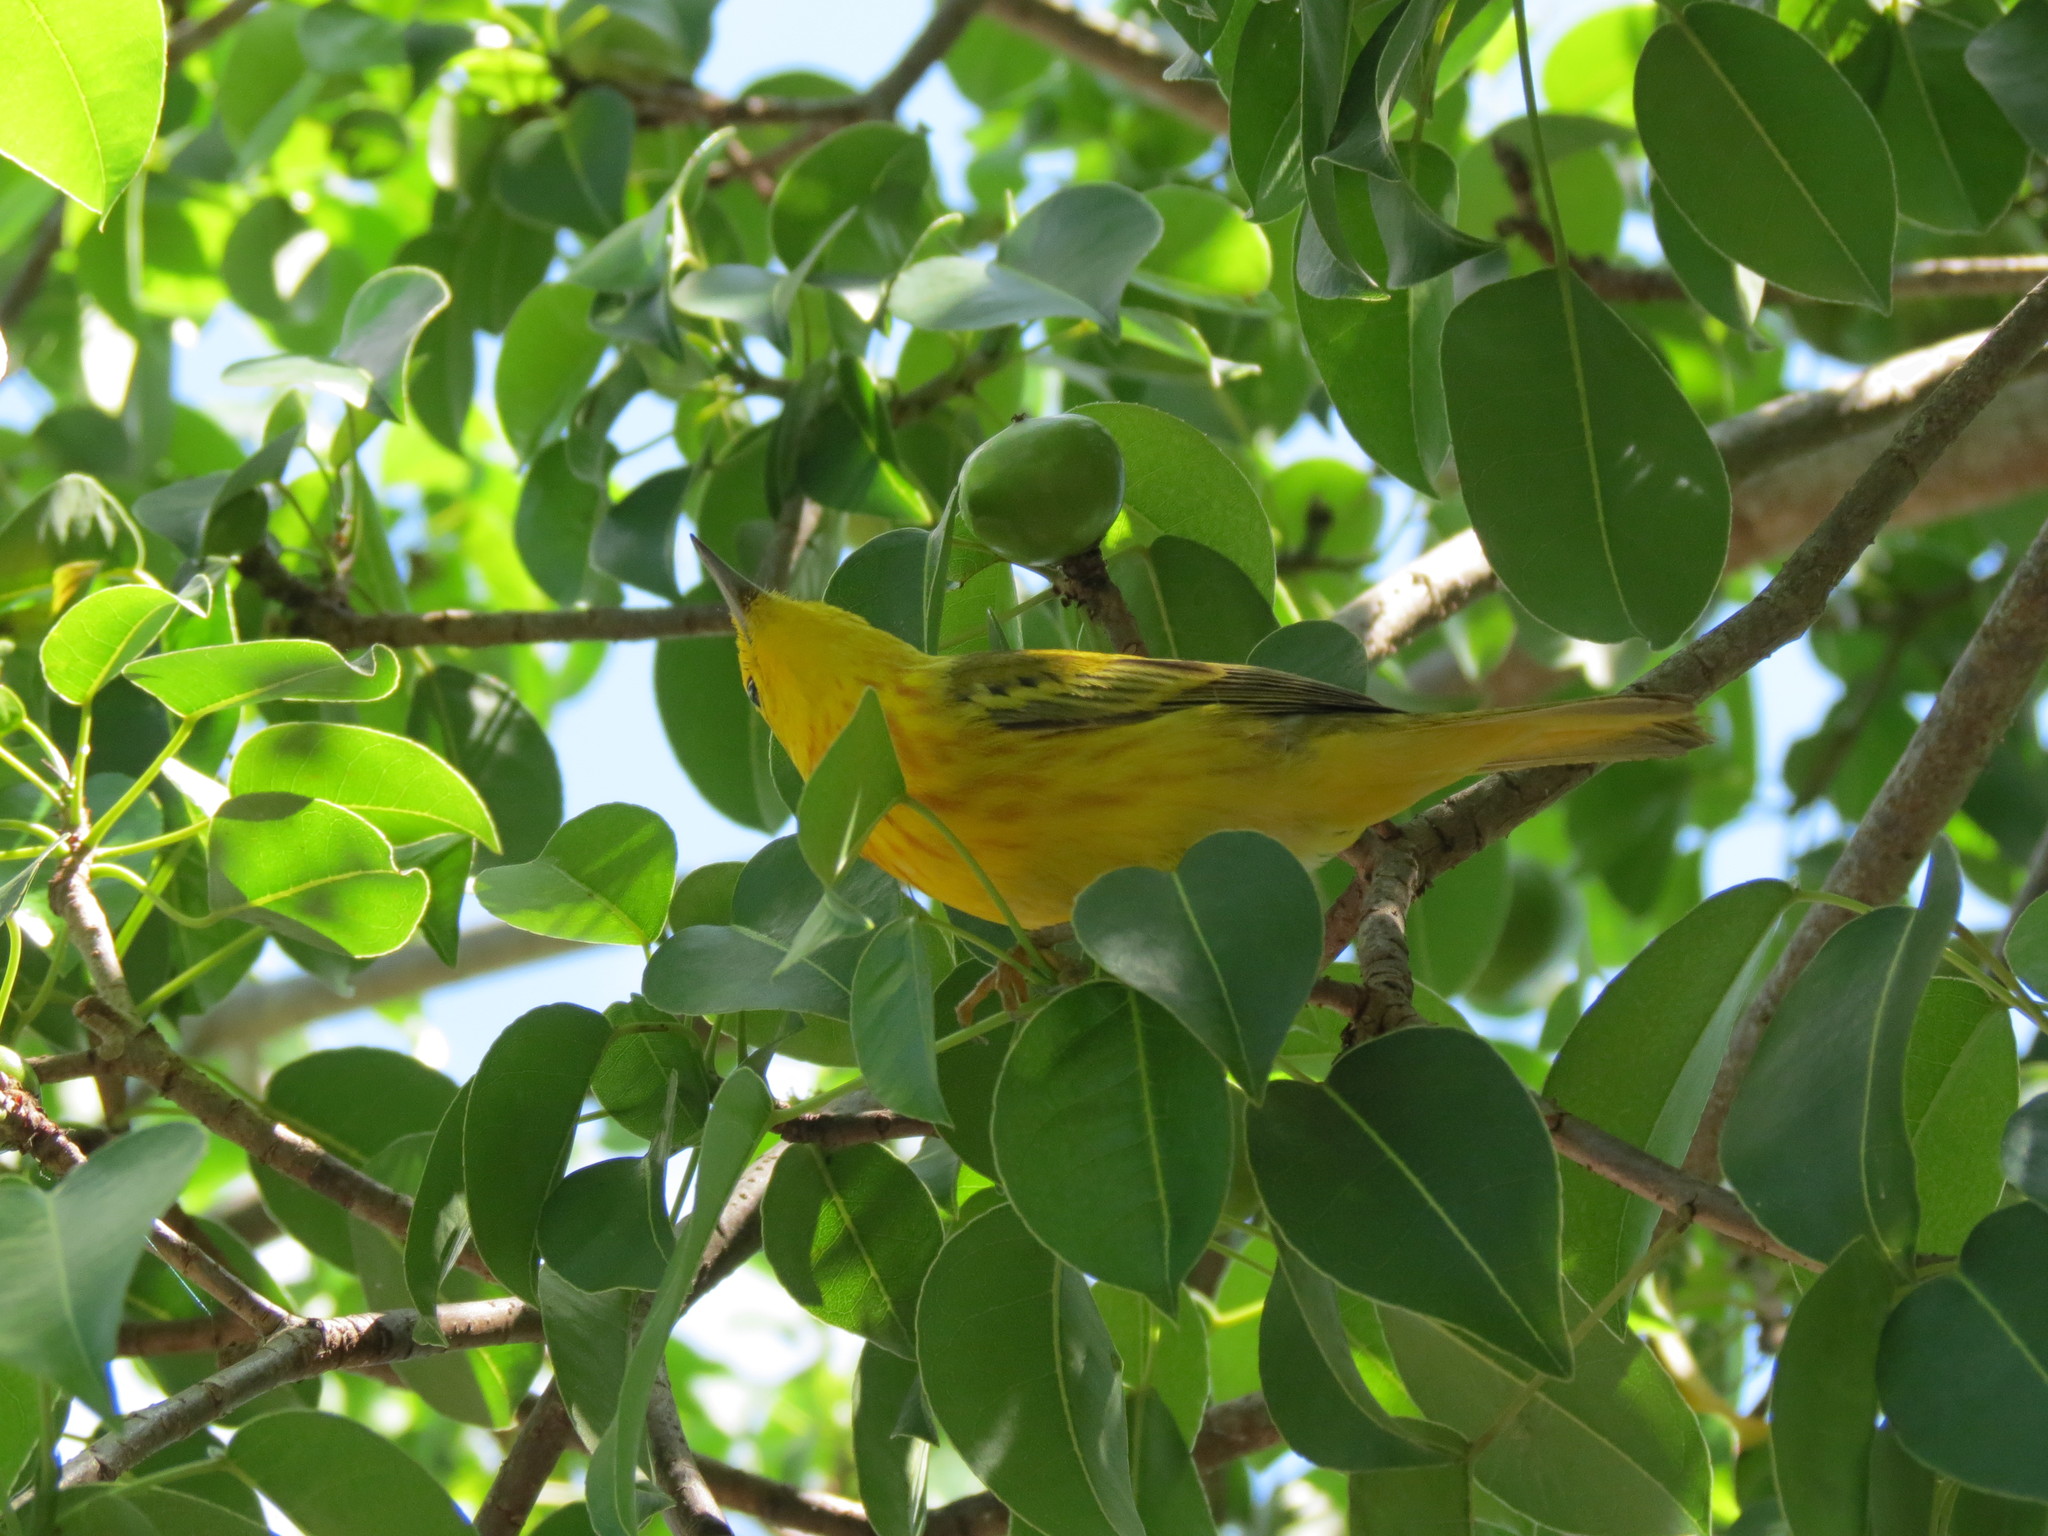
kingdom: Animalia
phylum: Chordata
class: Aves
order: Passeriformes
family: Parulidae
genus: Setophaga
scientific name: Setophaga petechia
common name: Yellow warbler
